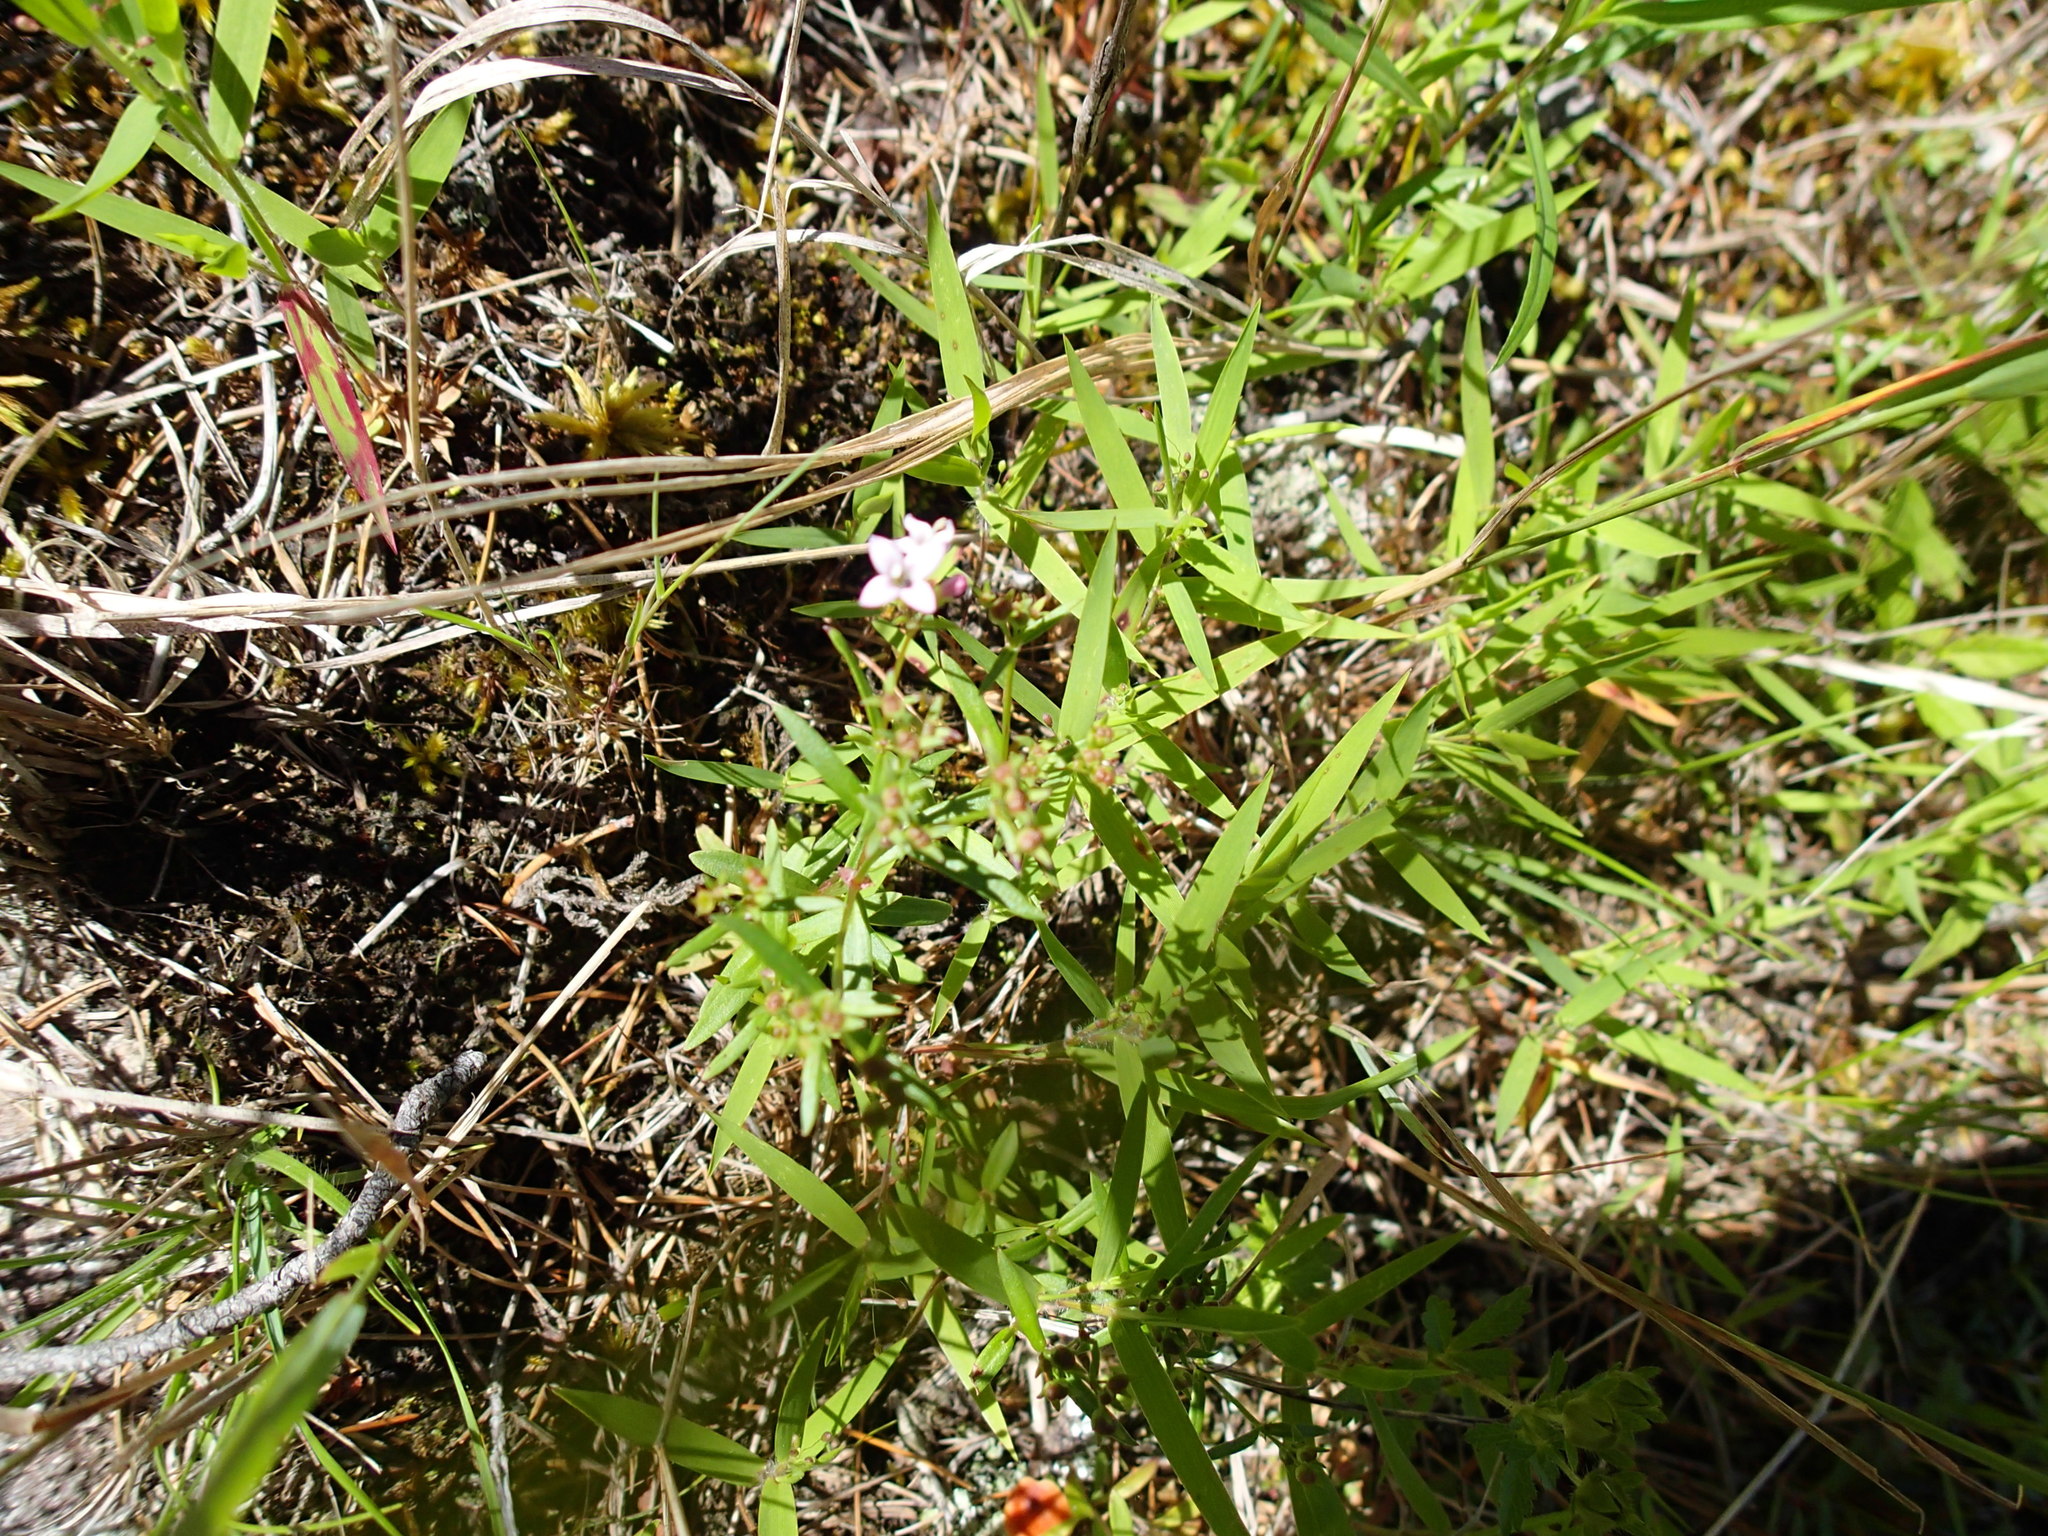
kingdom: Plantae
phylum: Tracheophyta
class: Magnoliopsida
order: Gentianales
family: Rubiaceae
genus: Houstonia
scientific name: Houstonia longifolia
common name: Long-leaved bluets
